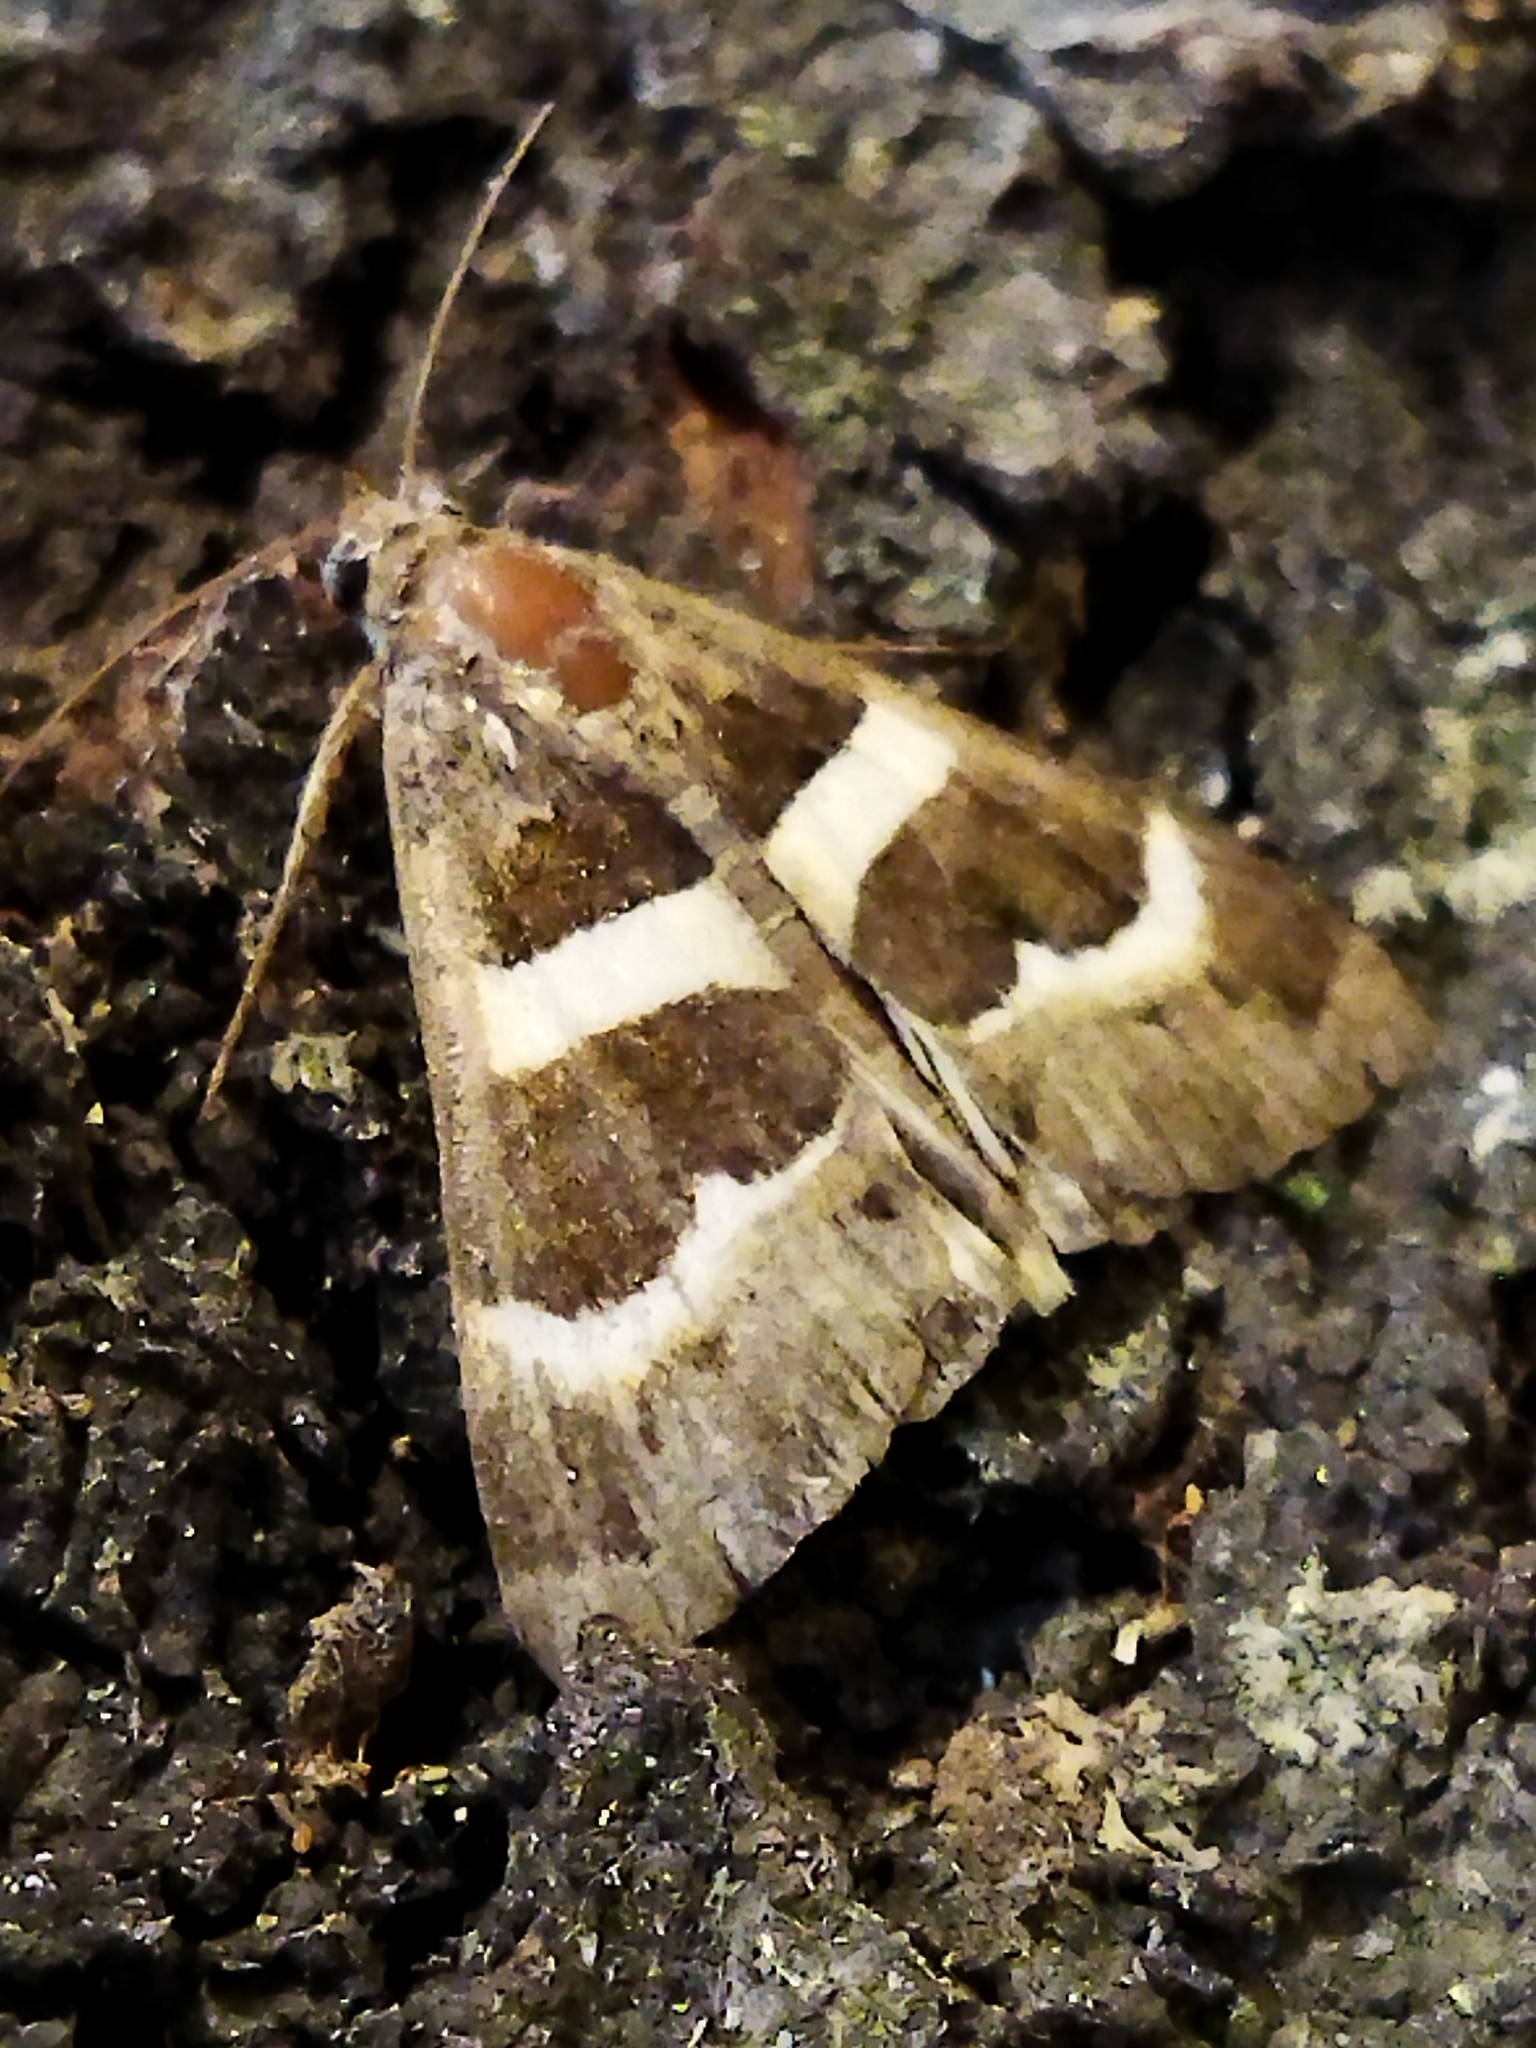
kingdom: Animalia
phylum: Arthropoda
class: Insecta
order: Lepidoptera
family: Erebidae
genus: Grammodes
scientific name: Grammodes stolida
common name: Geometrician
